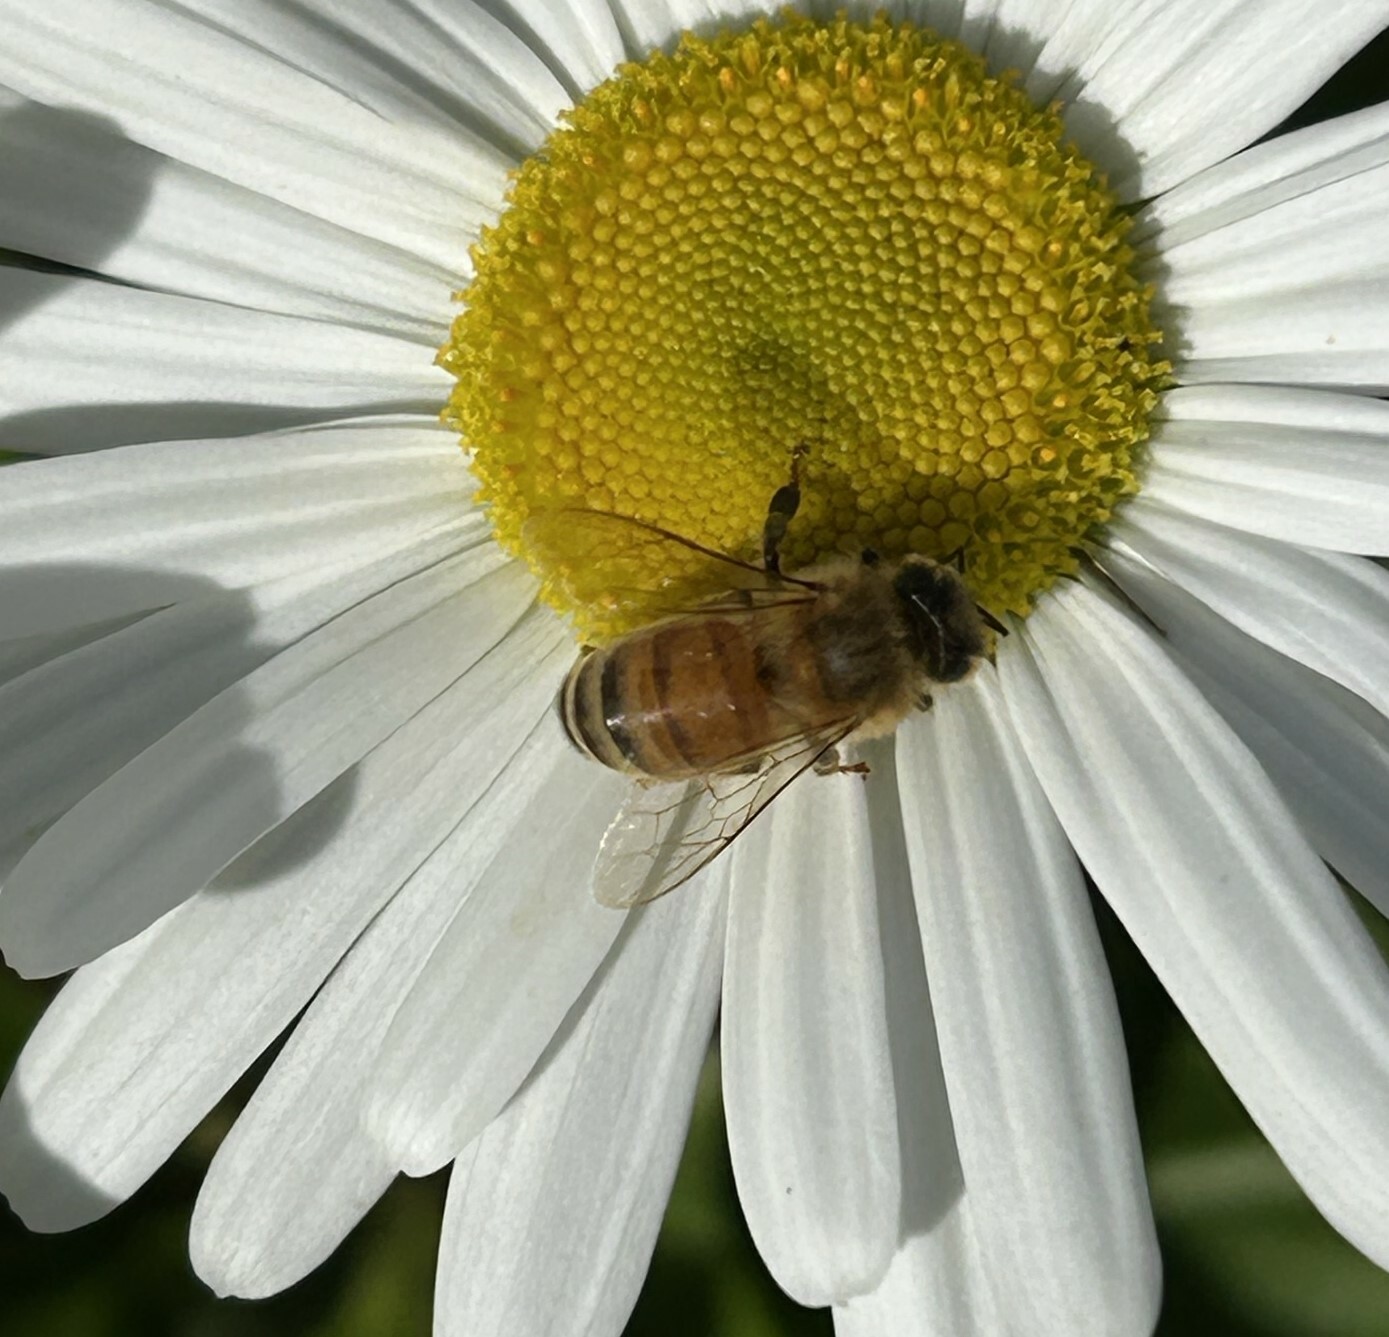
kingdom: Animalia
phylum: Arthropoda
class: Insecta
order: Hymenoptera
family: Apidae
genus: Apis
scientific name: Apis mellifera
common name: Honey bee
